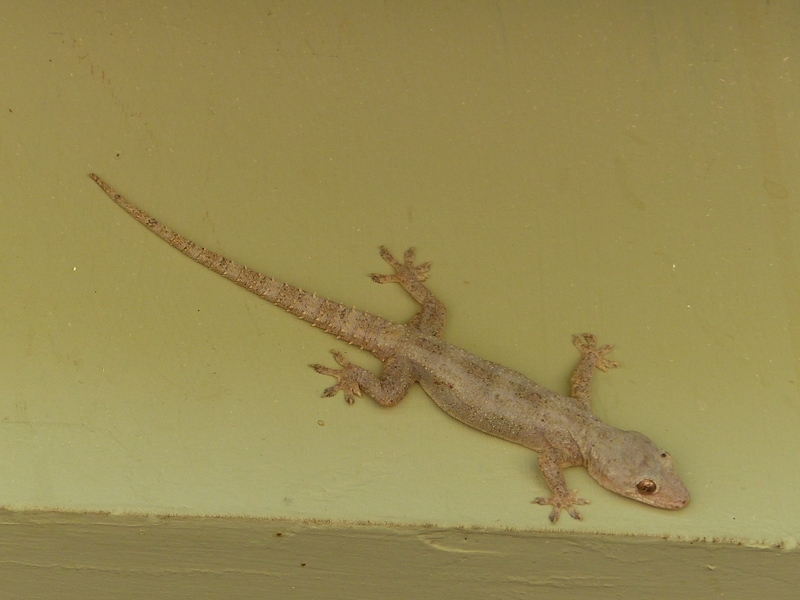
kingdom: Animalia
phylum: Chordata
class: Squamata
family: Gekkonidae
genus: Hemidactylus
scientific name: Hemidactylus platycephalus
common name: Baobab gecko
